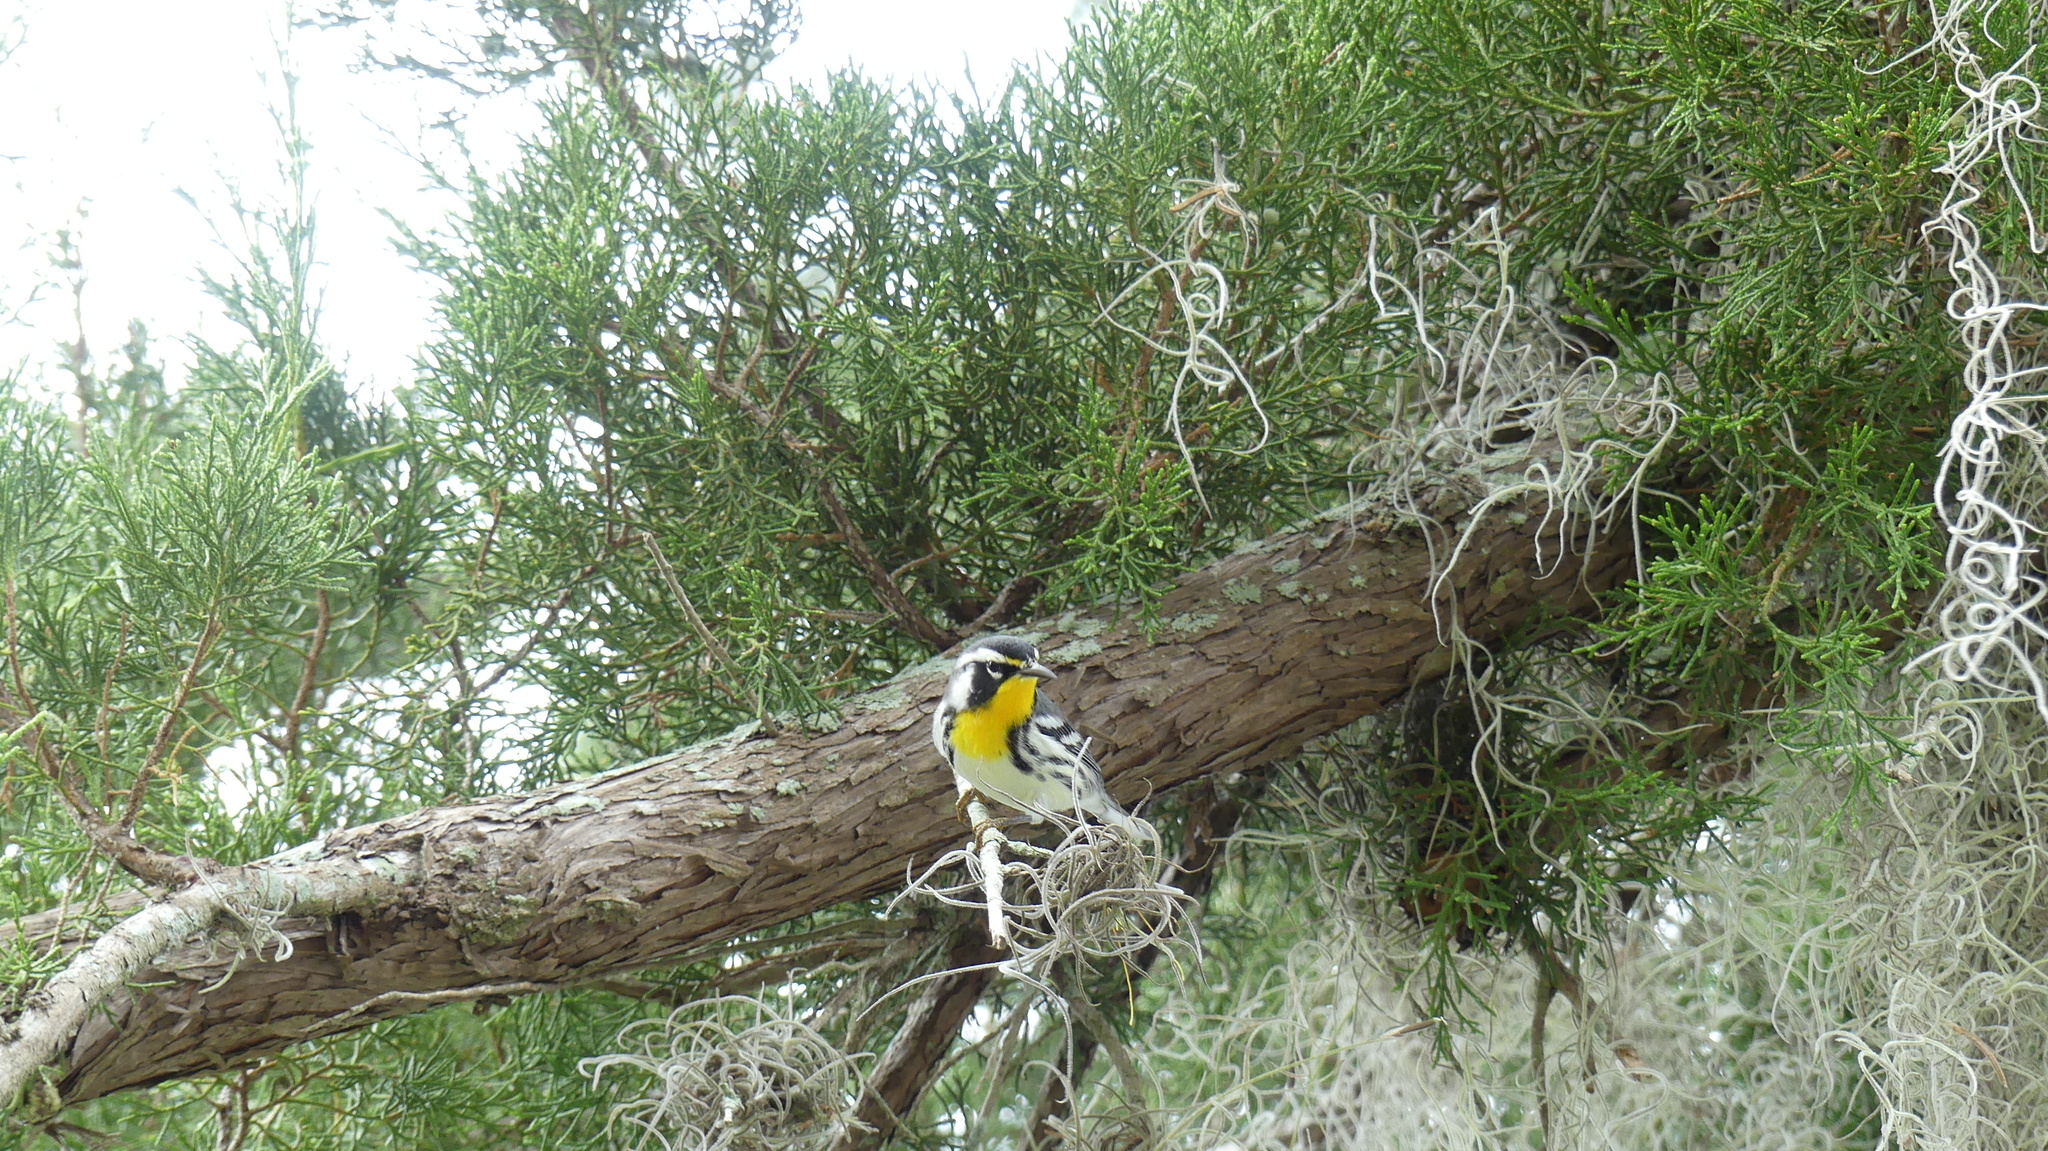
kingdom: Animalia
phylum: Chordata
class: Aves
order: Passeriformes
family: Parulidae
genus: Setophaga
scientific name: Setophaga dominica
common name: Yellow-throated warbler
